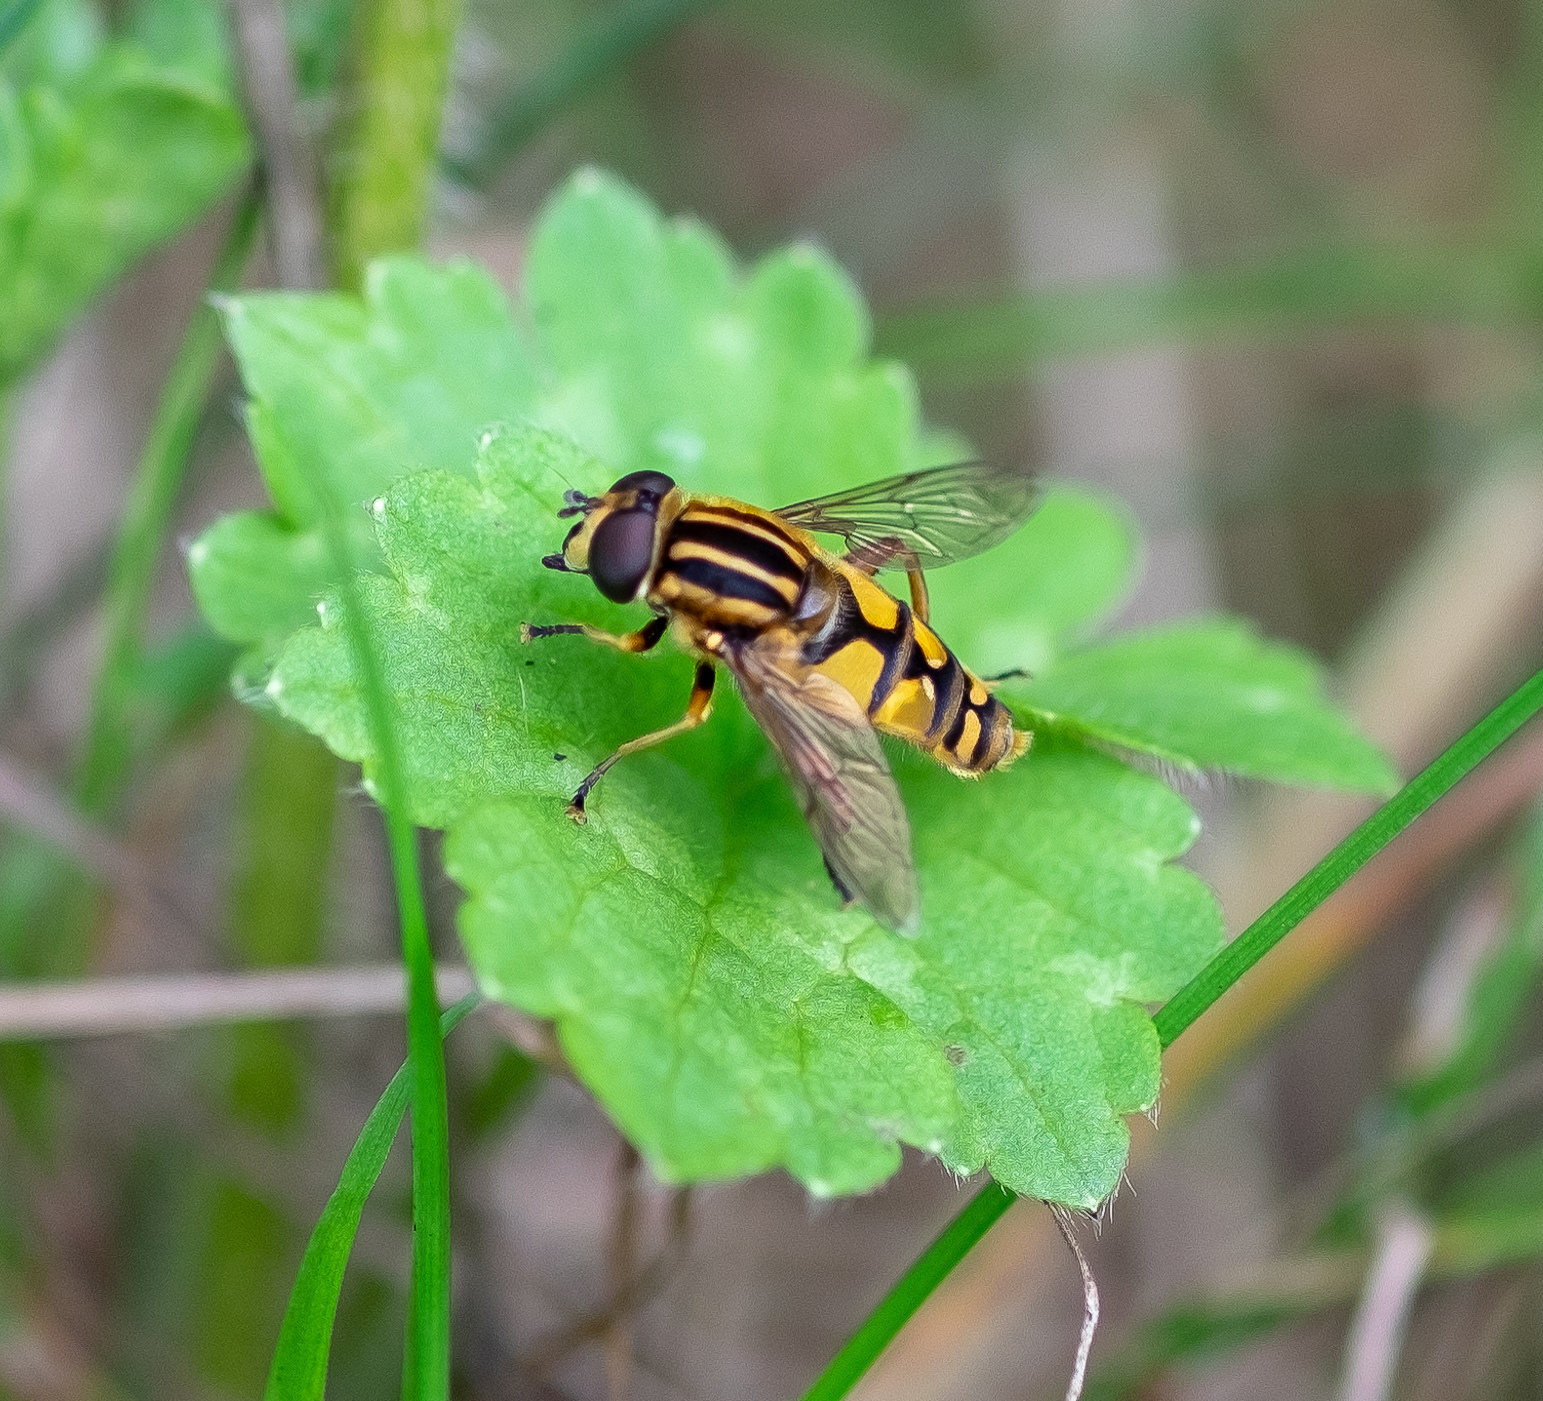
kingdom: Animalia
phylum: Arthropoda
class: Insecta
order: Diptera
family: Syrphidae
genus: Helophilus
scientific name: Helophilus pendulus
